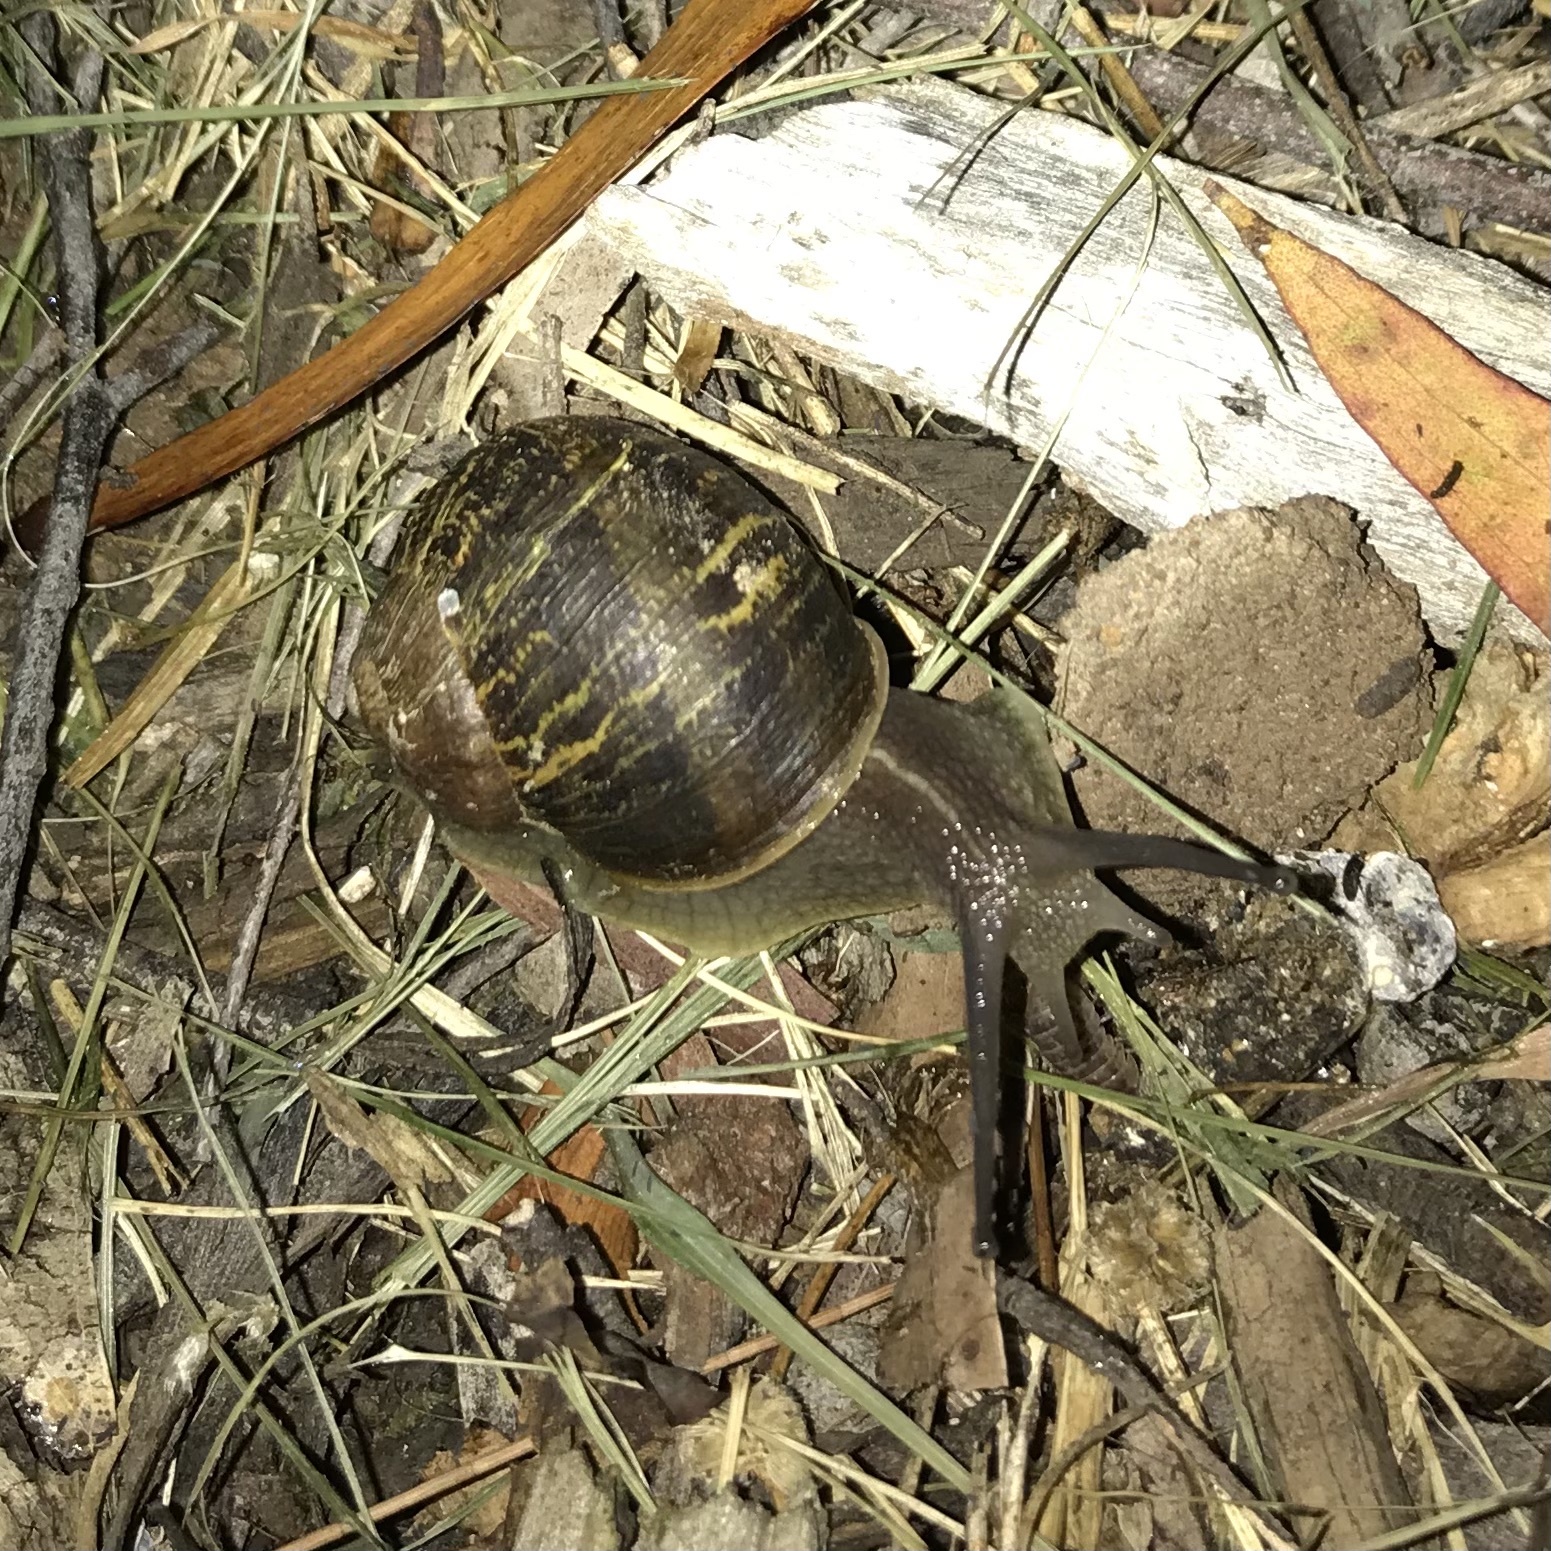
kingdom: Animalia
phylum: Mollusca
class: Gastropoda
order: Stylommatophora
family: Helicidae
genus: Cornu
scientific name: Cornu aspersum
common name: Brown garden snail
